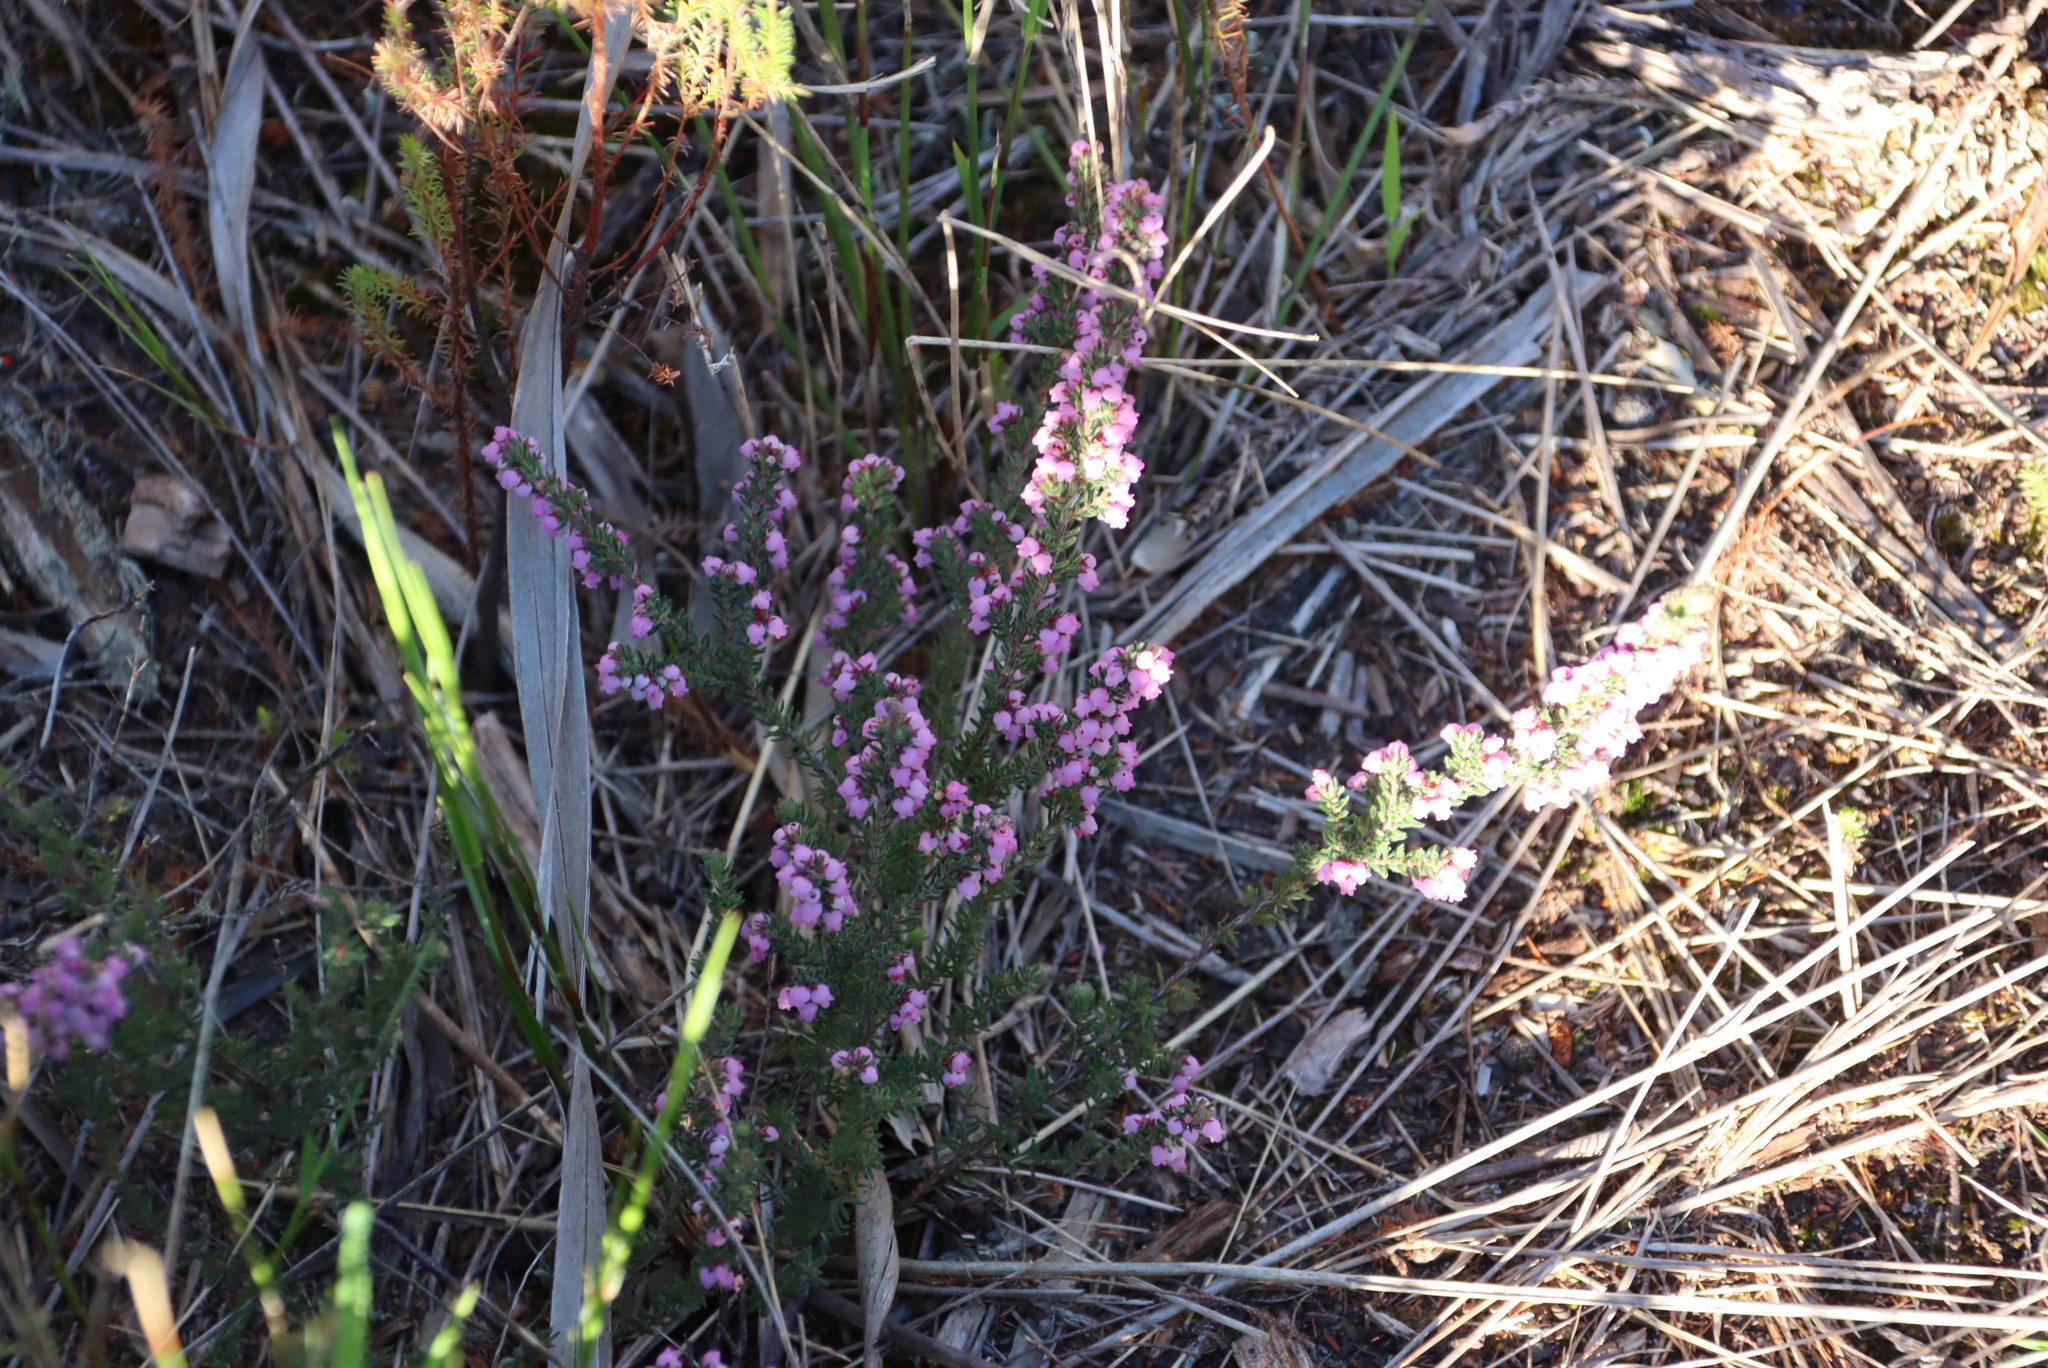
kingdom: Plantae
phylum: Tracheophyta
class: Magnoliopsida
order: Ericales
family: Ericaceae
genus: Erica
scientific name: Erica mollis
